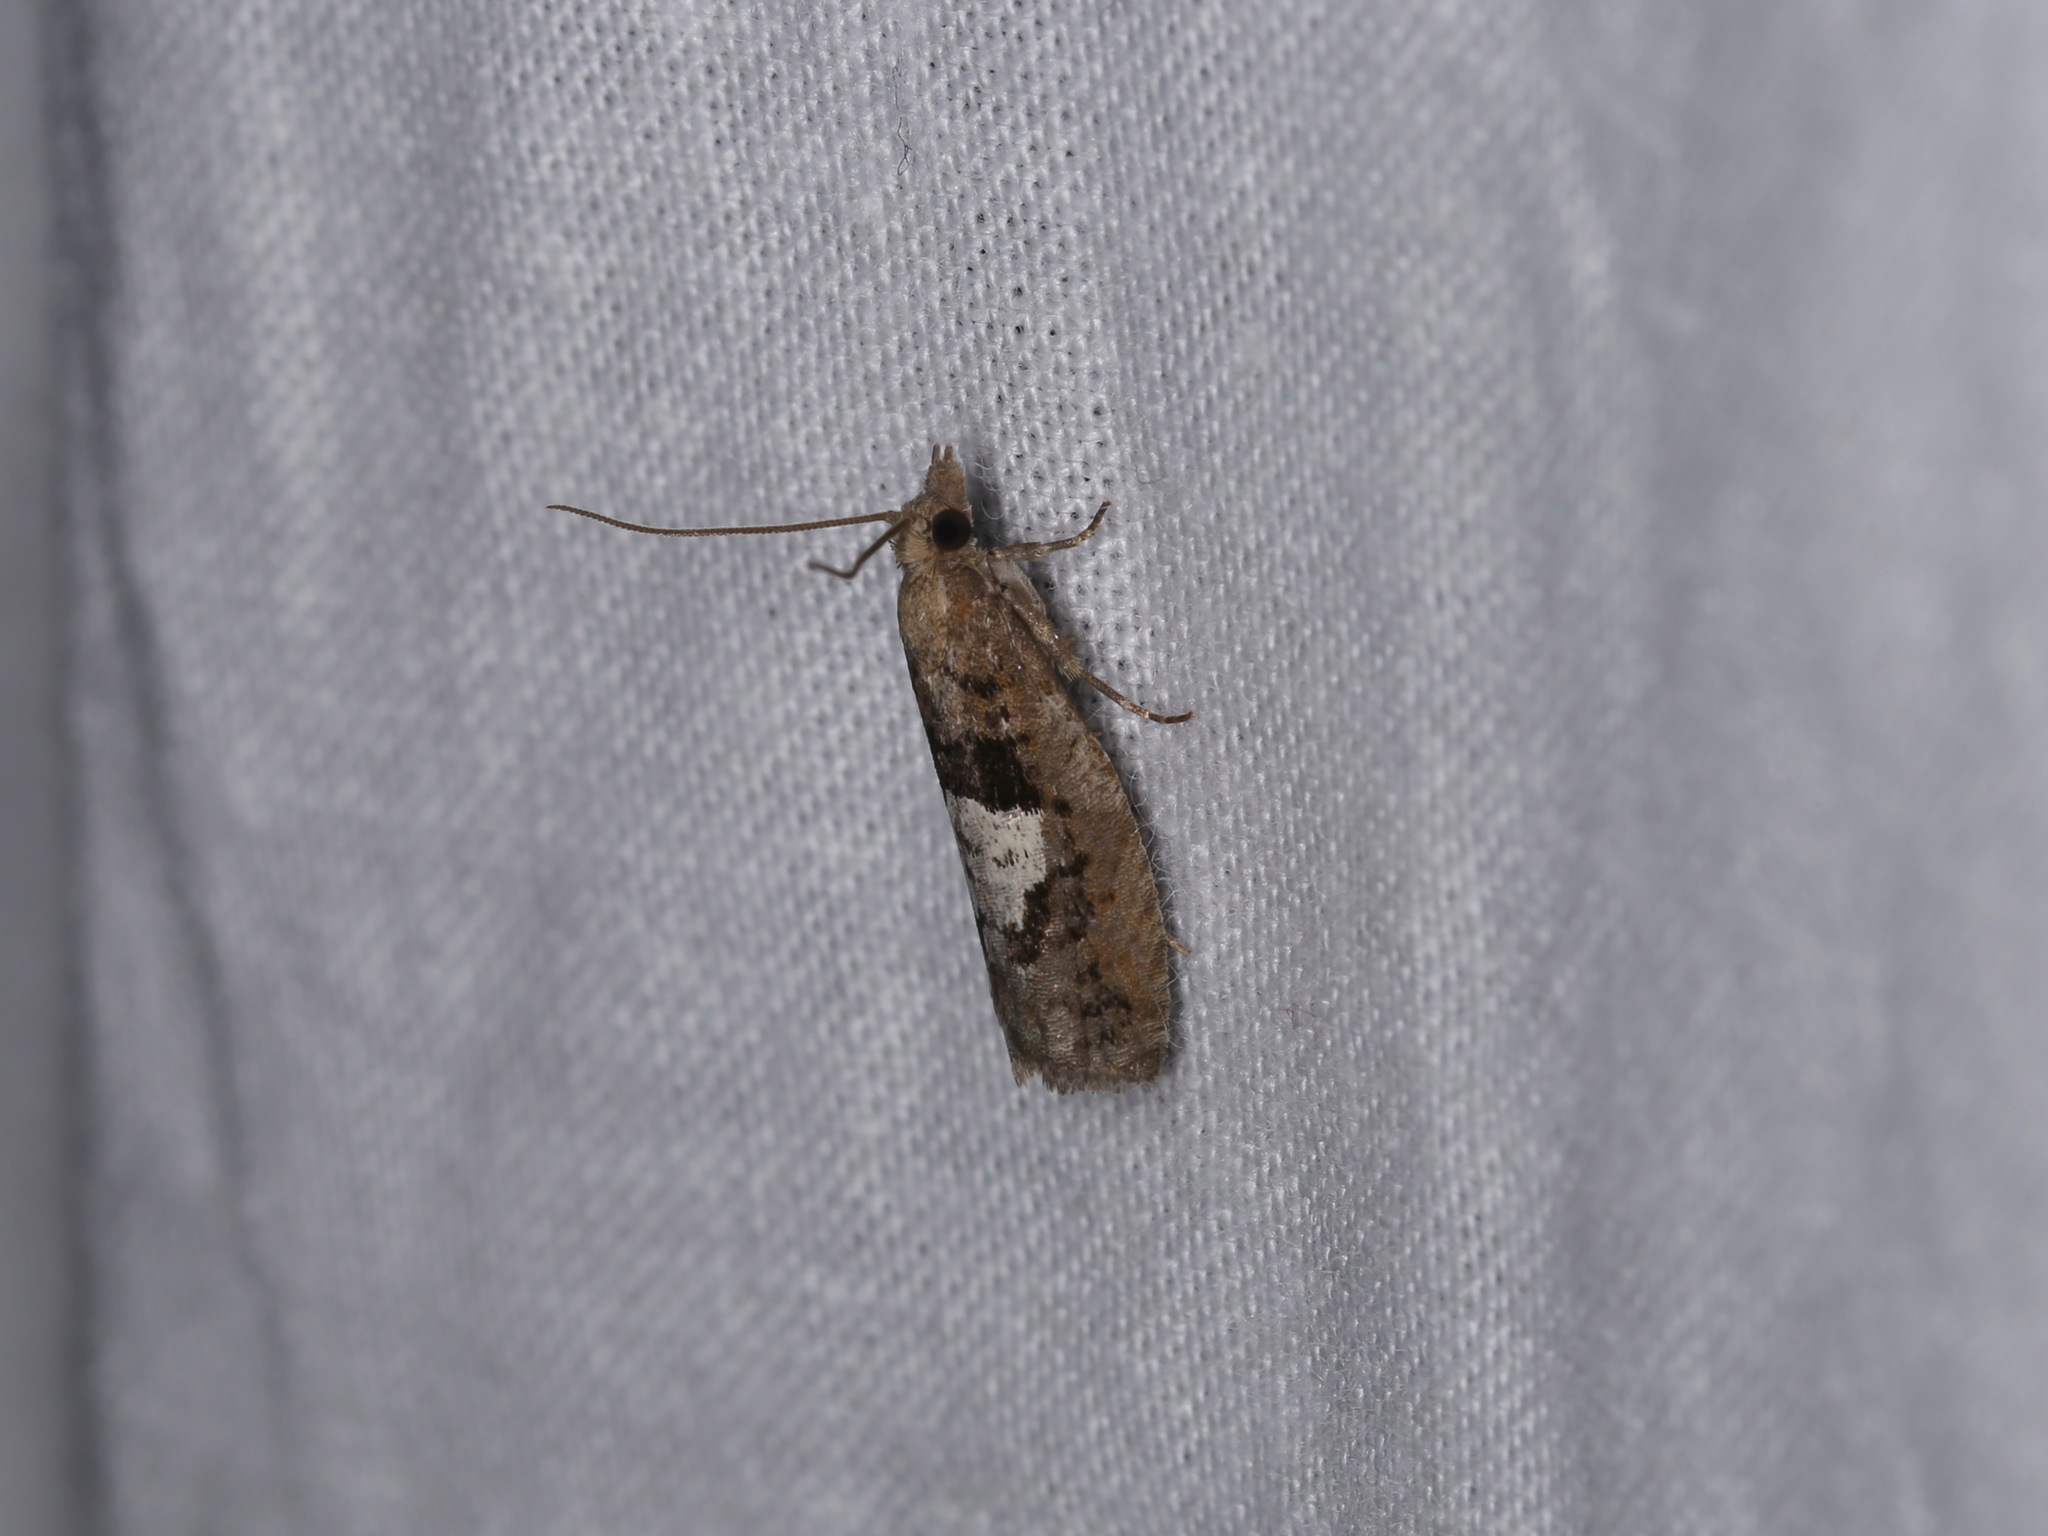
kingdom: Animalia
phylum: Arthropoda
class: Insecta
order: Lepidoptera
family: Tortricidae
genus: Epinotia
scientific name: Epinotia brunnichana
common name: Large birch bell
